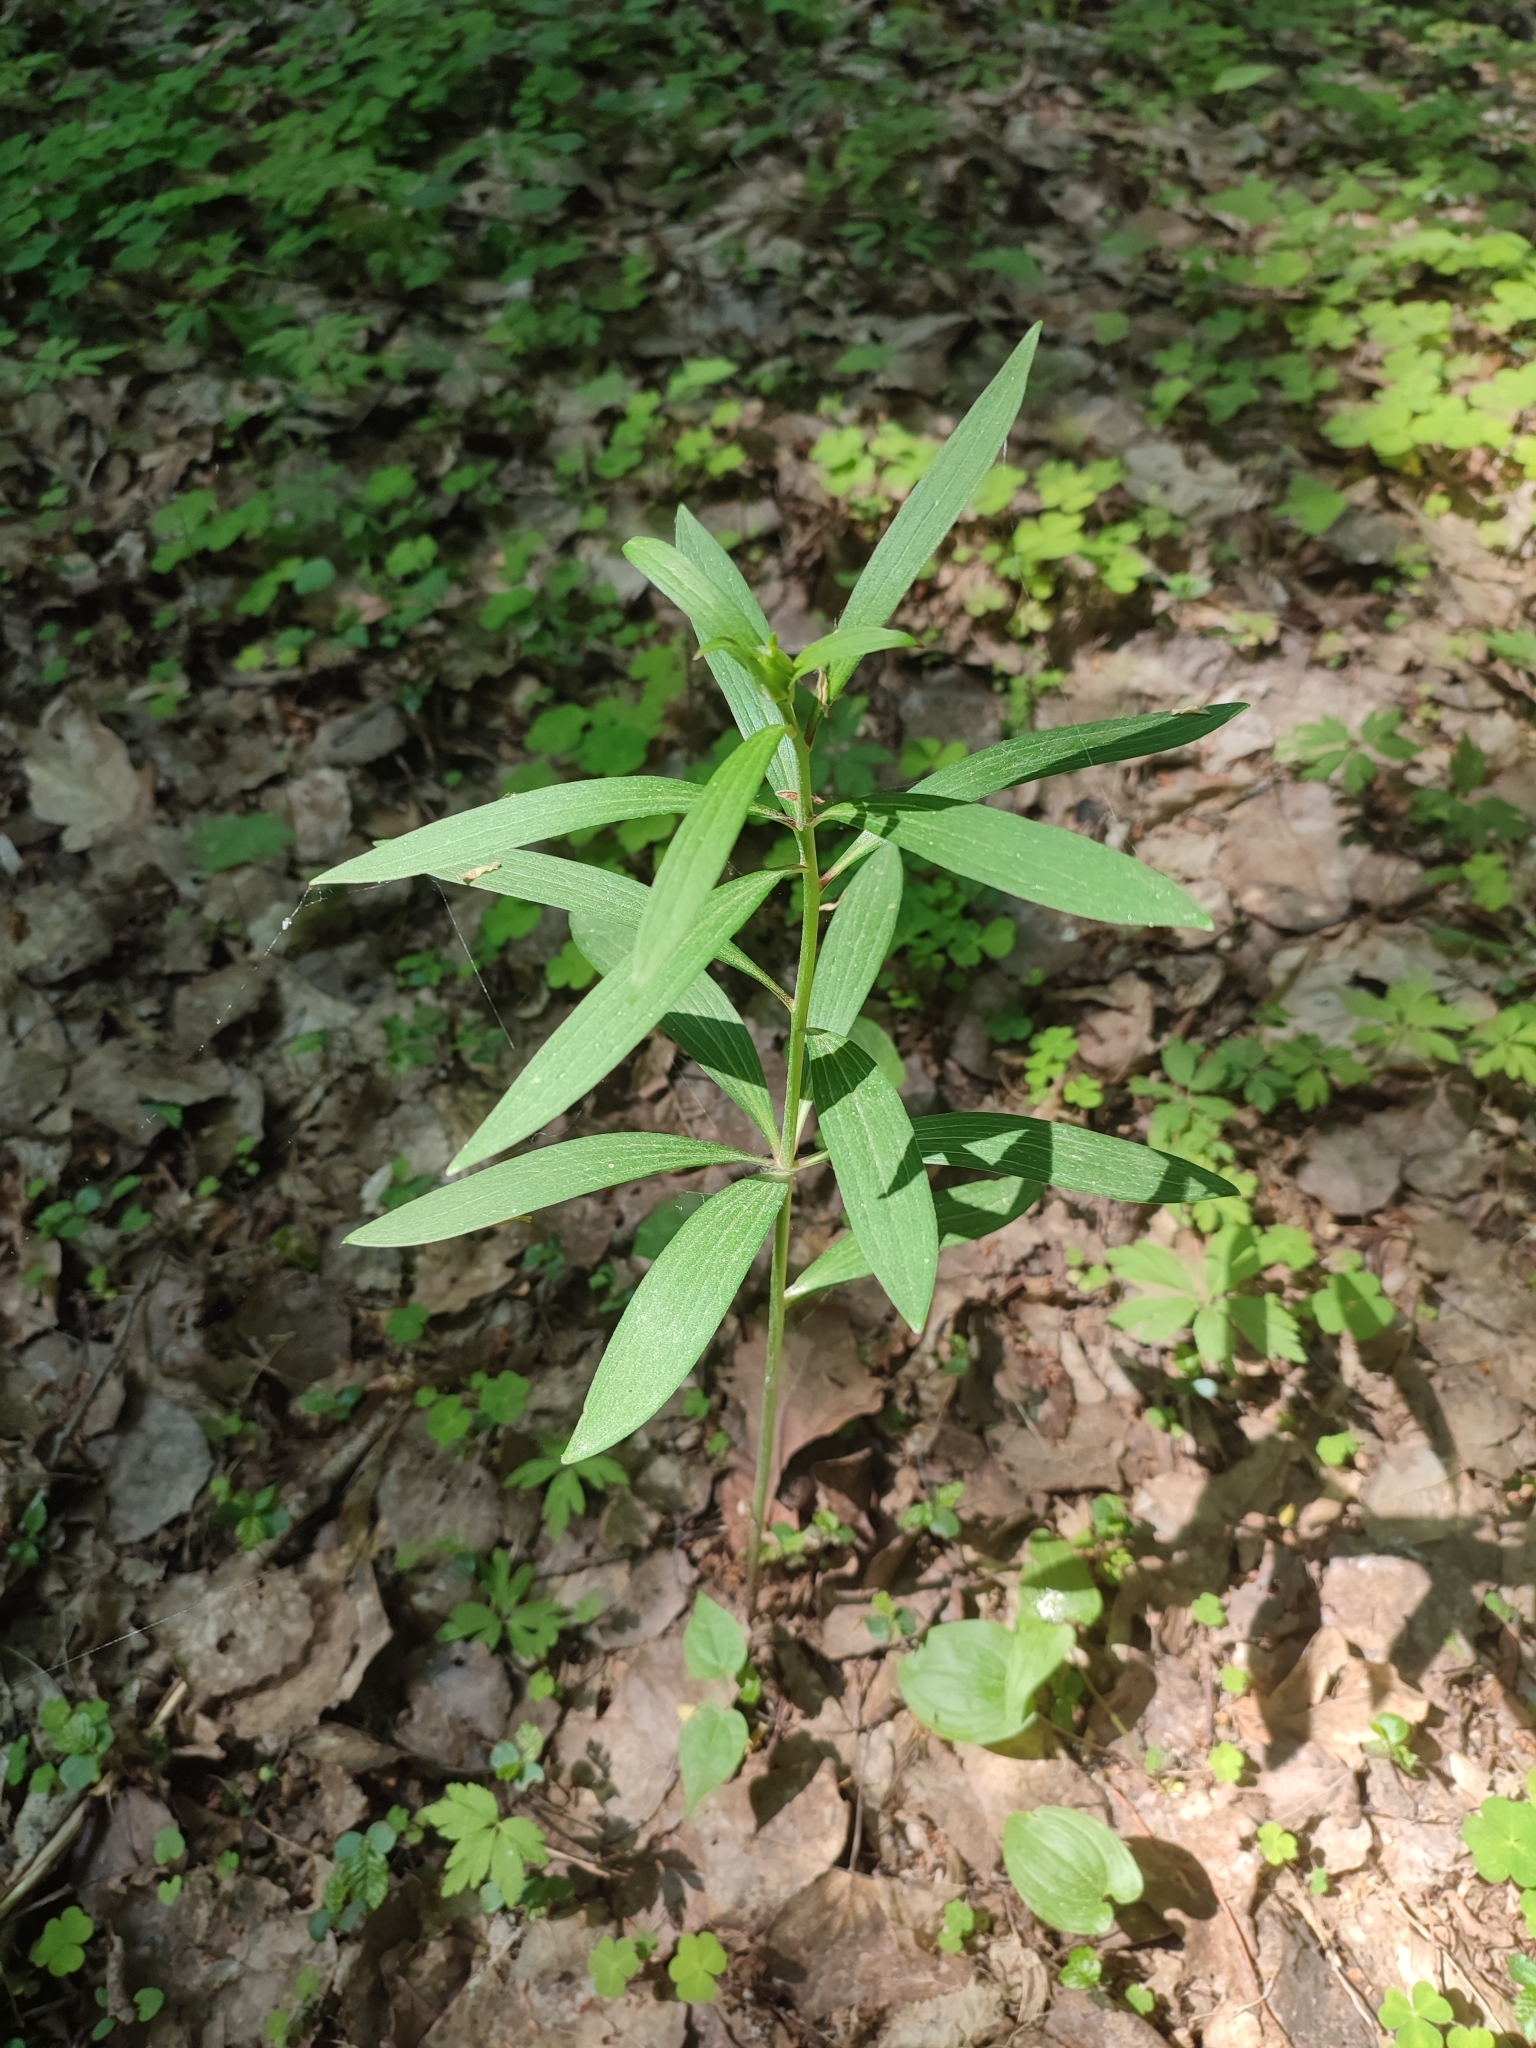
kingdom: Plantae
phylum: Tracheophyta
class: Liliopsida
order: Liliales
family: Liliaceae
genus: Lilium
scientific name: Lilium martagon
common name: Martagon lily
